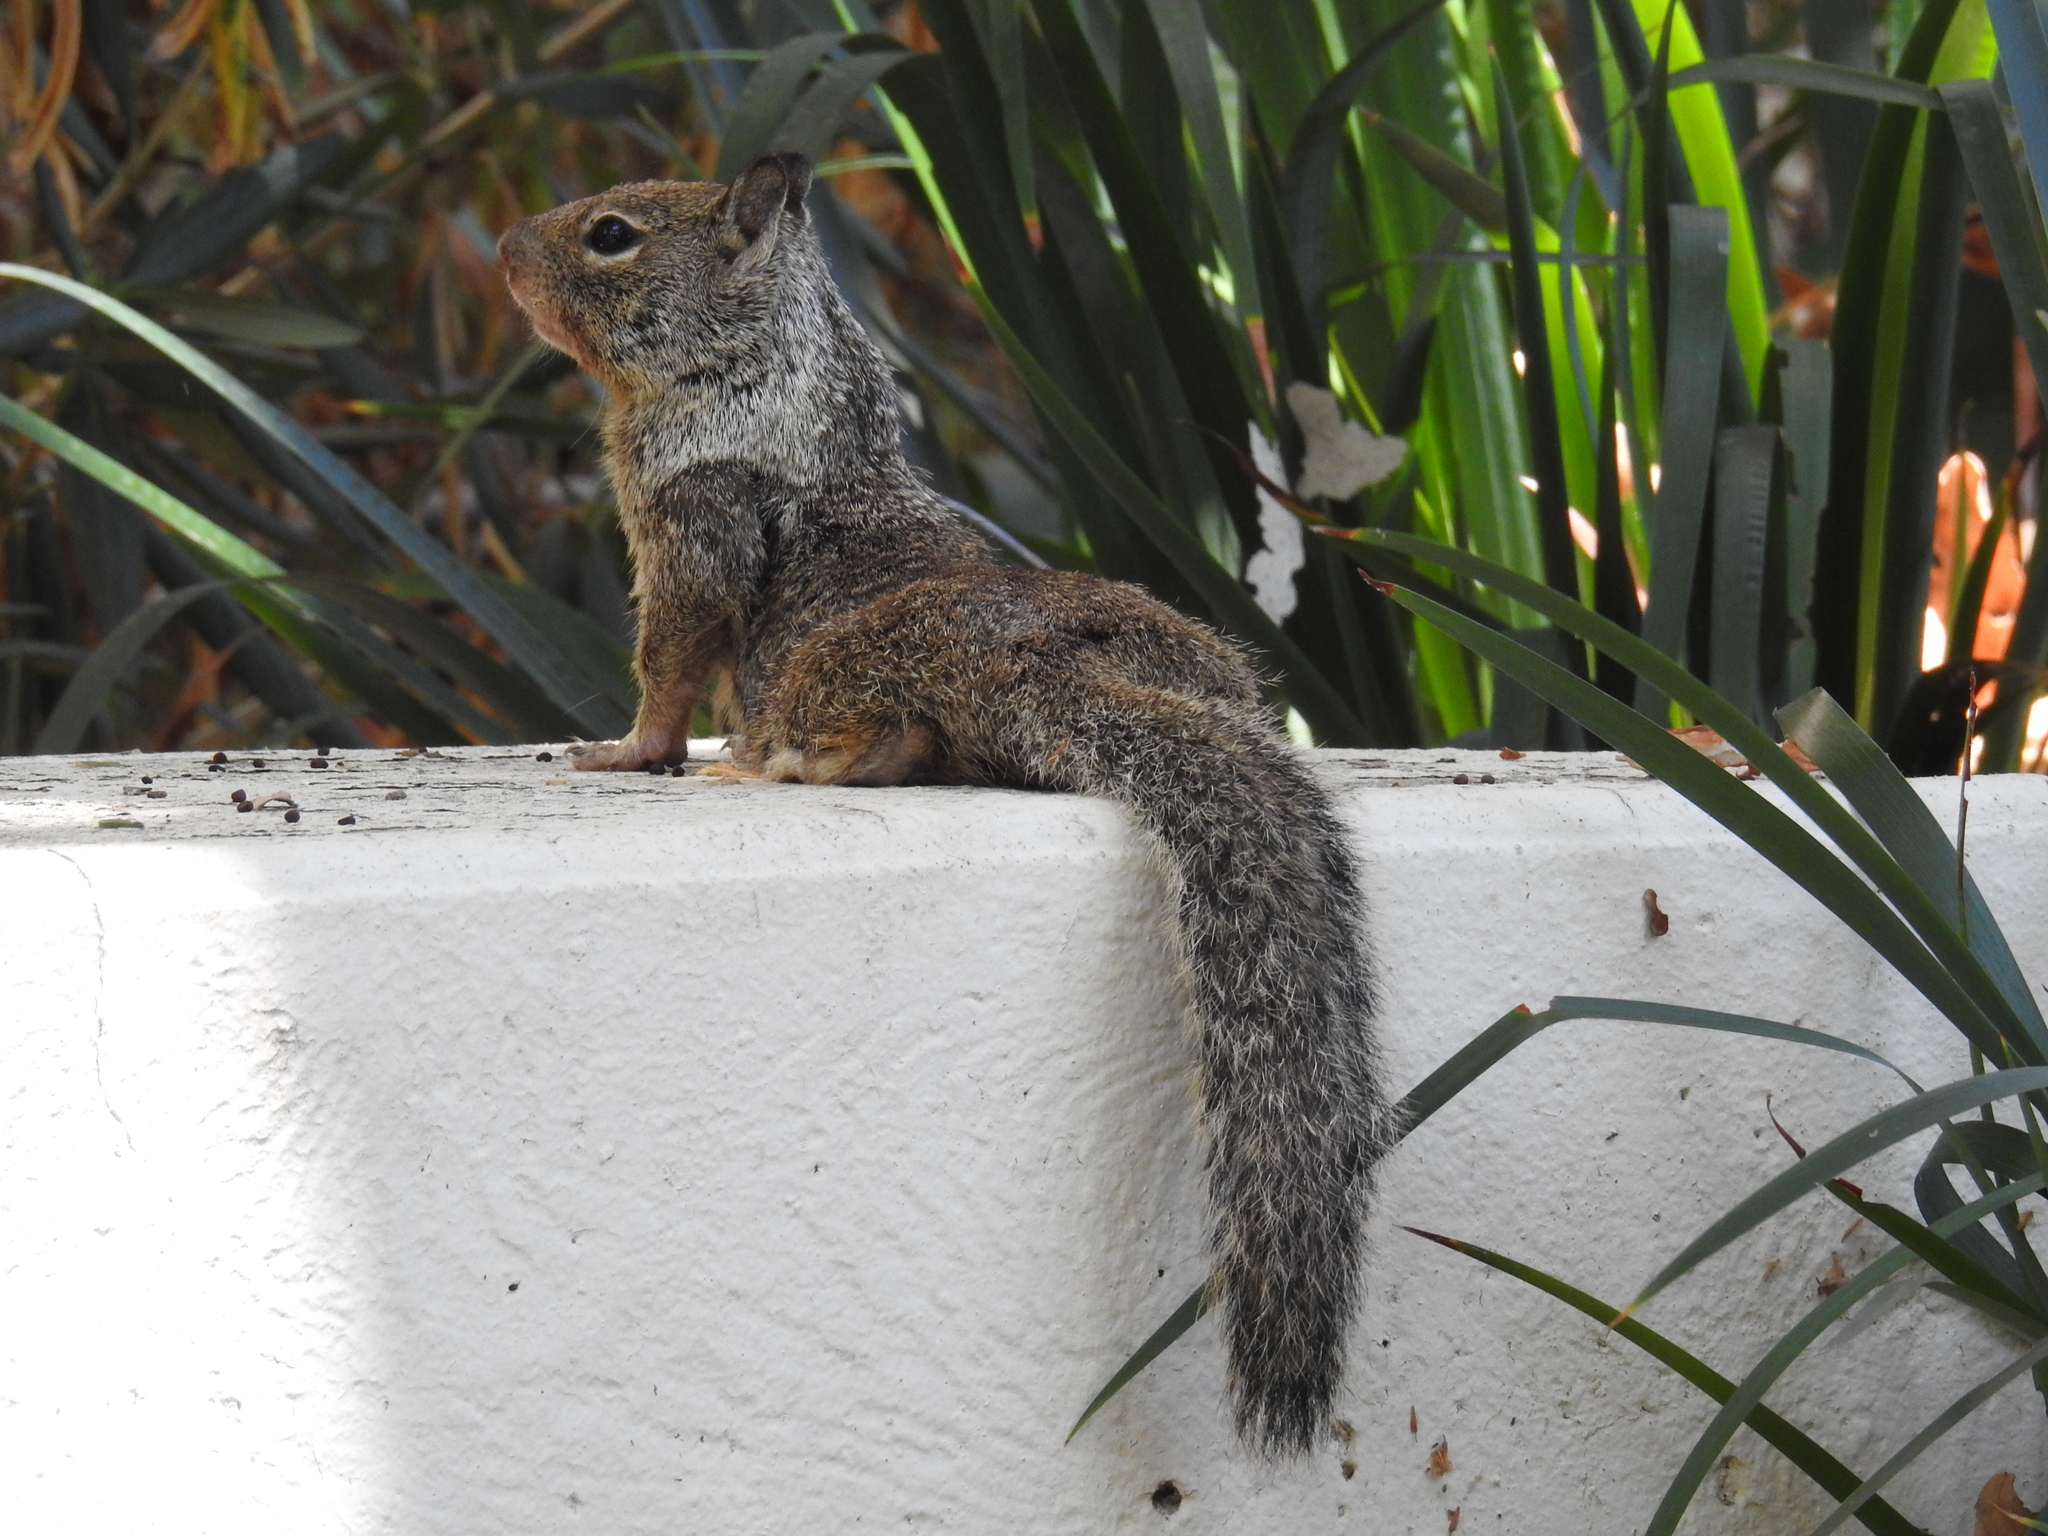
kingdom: Animalia
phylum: Chordata
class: Mammalia
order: Rodentia
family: Sciuridae
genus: Otospermophilus
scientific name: Otospermophilus beecheyi
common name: California ground squirrel
